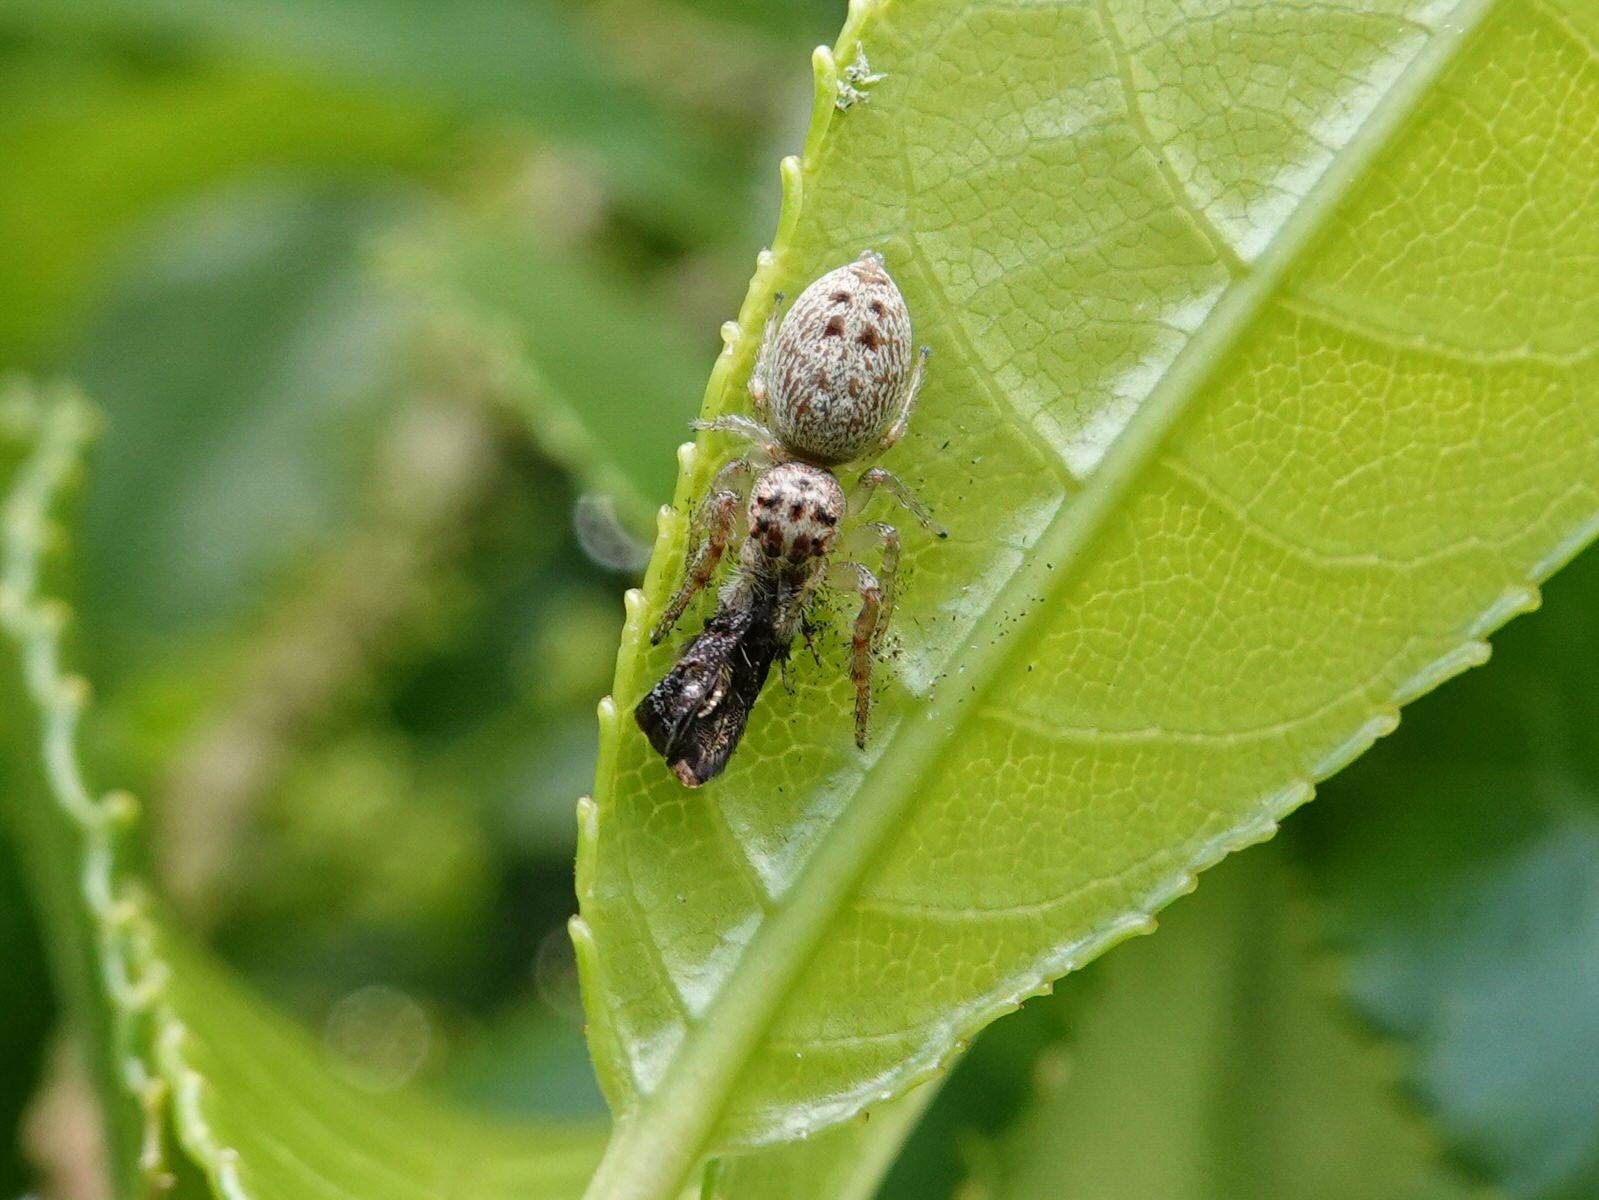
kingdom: Animalia
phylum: Arthropoda
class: Arachnida
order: Araneae
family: Salticidae
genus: Opisthoncus
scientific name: Opisthoncus polyphemus
